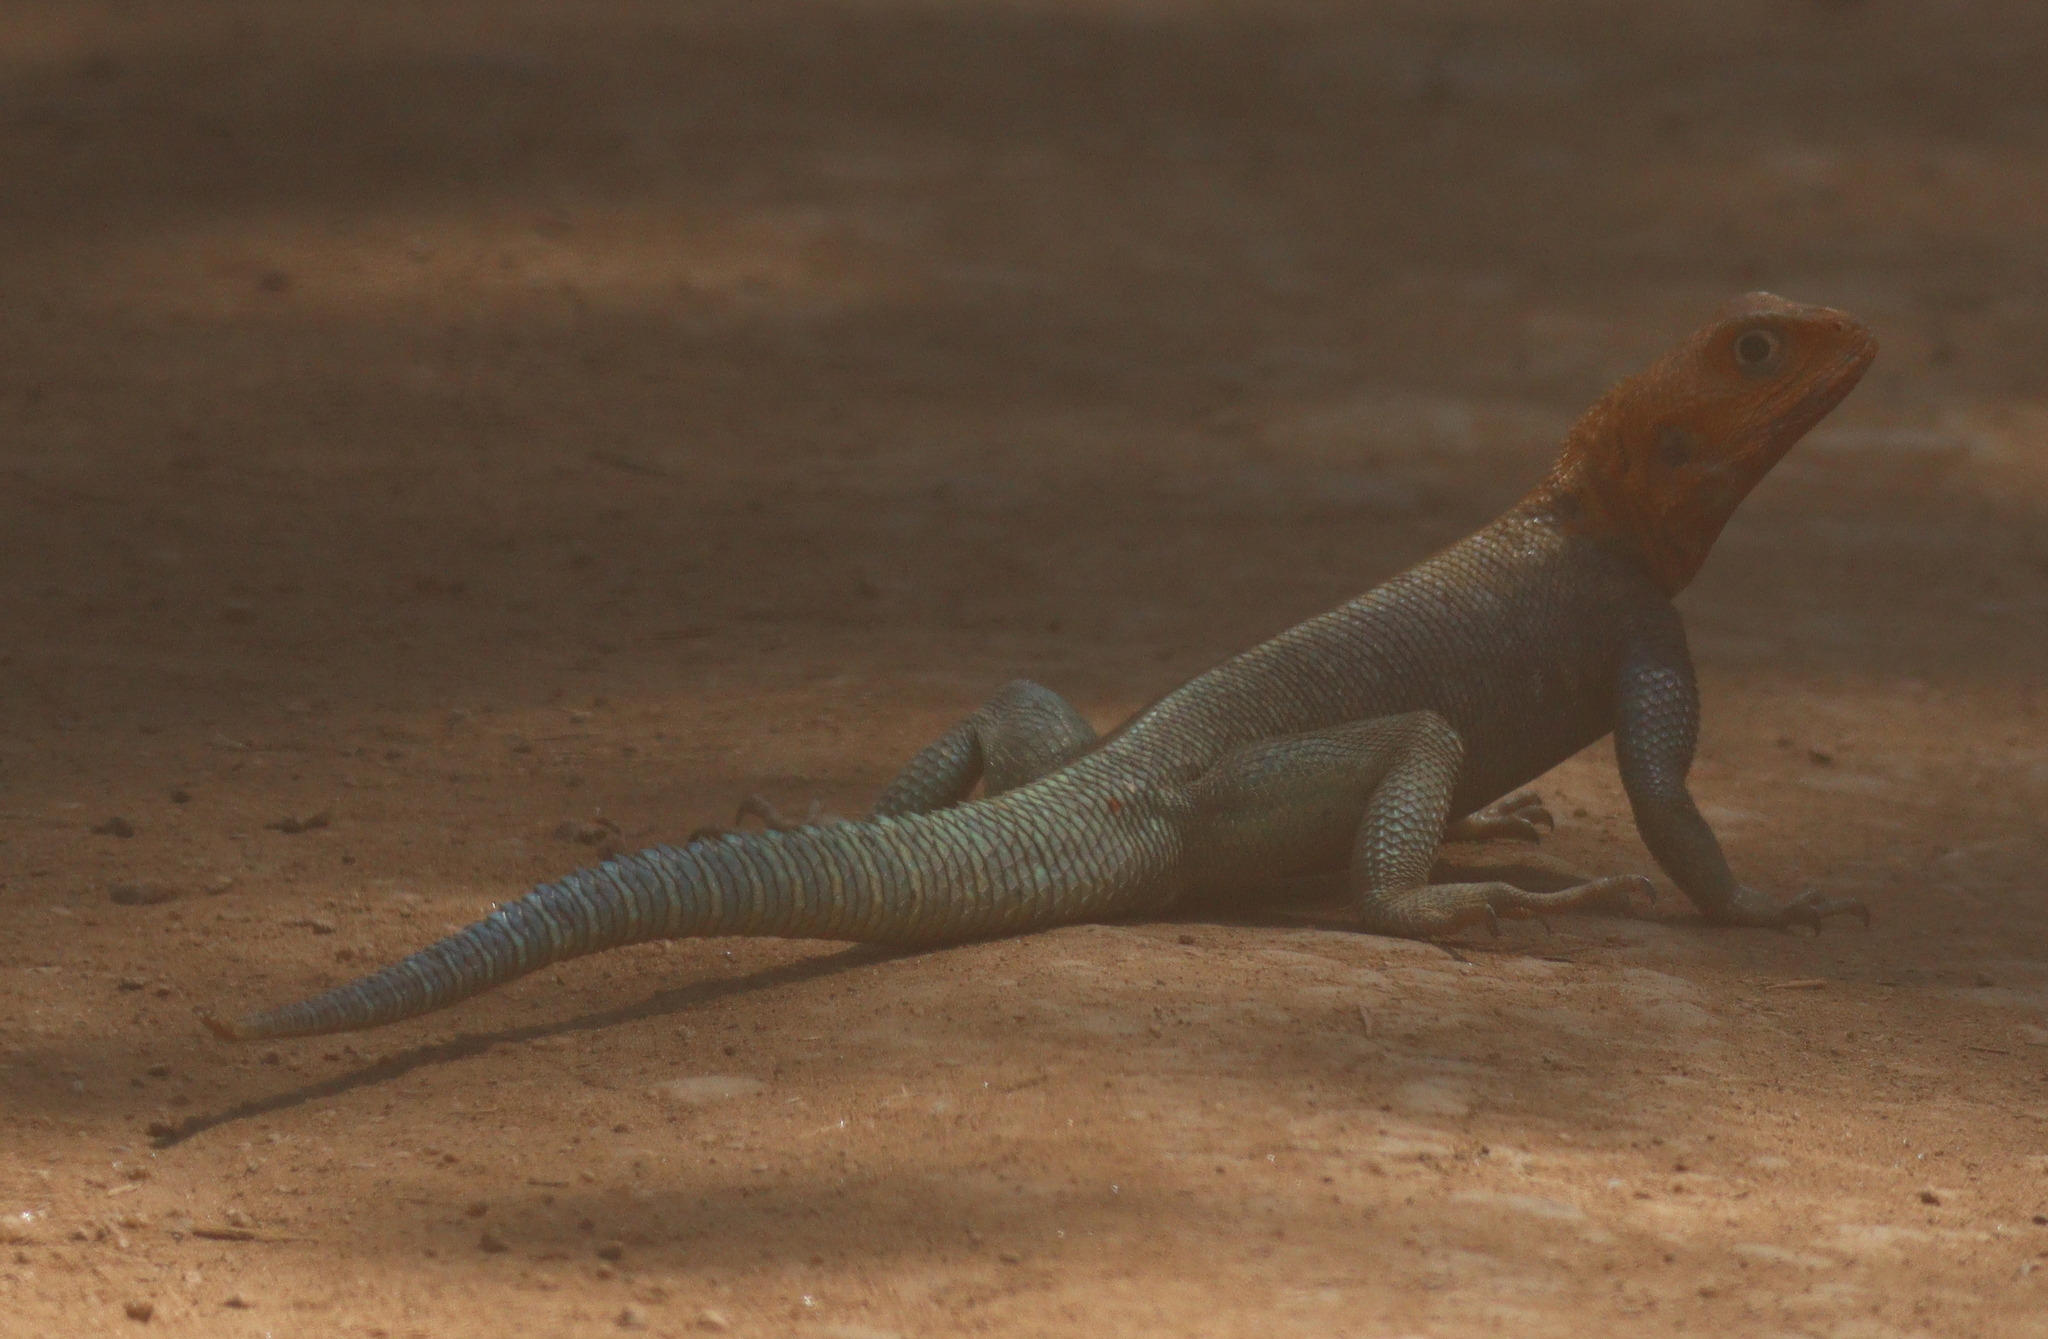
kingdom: Animalia
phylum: Chordata
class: Squamata
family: Agamidae
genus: Agama
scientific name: Agama lionotus
